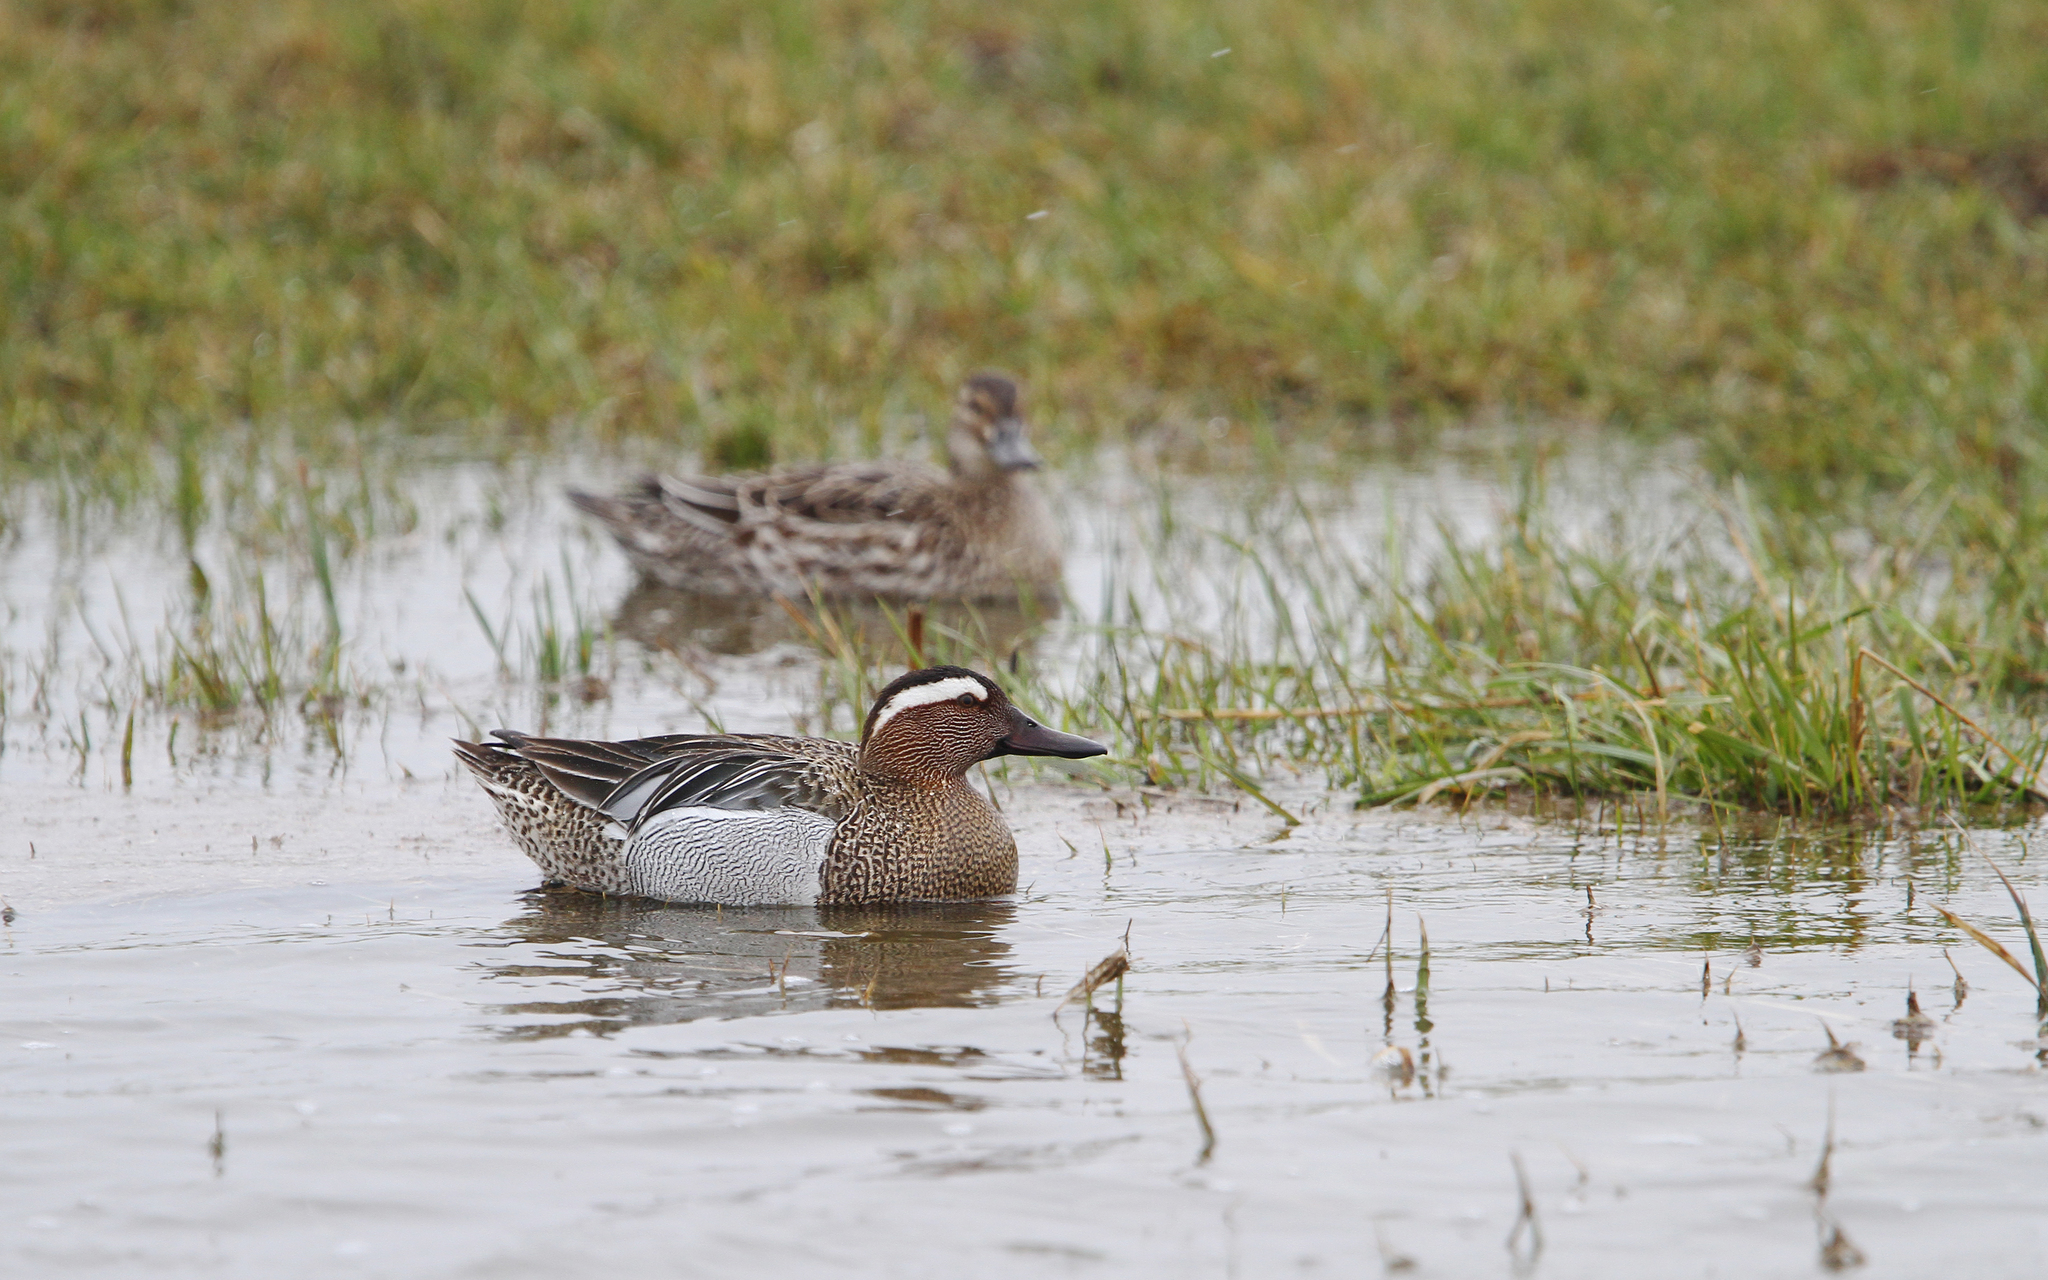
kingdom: Animalia
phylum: Chordata
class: Aves
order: Anseriformes
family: Anatidae
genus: Spatula
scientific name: Spatula querquedula
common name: Garganey
